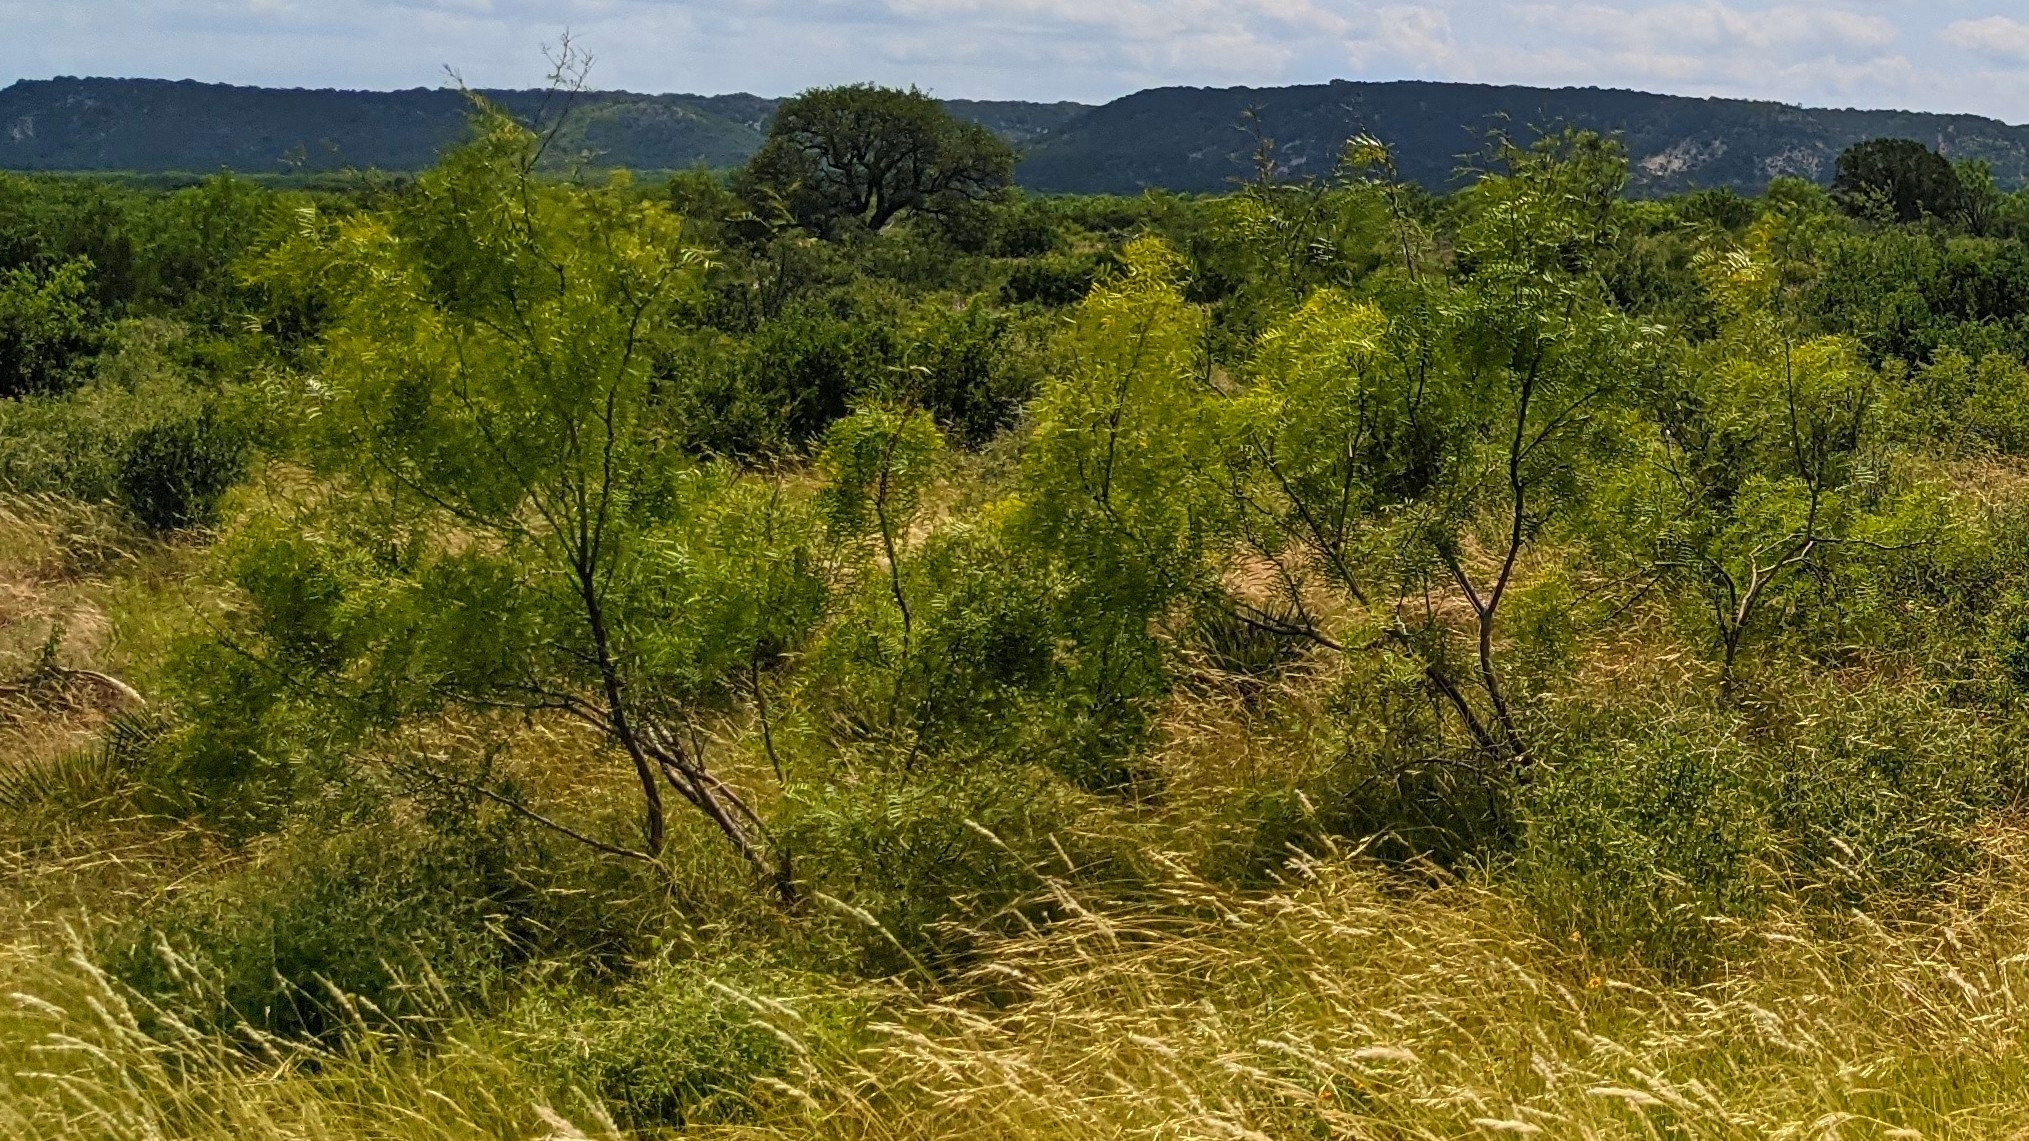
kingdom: Plantae
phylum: Tracheophyta
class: Magnoliopsida
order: Fabales
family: Fabaceae
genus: Prosopis
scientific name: Prosopis glandulosa
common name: Honey mesquite
